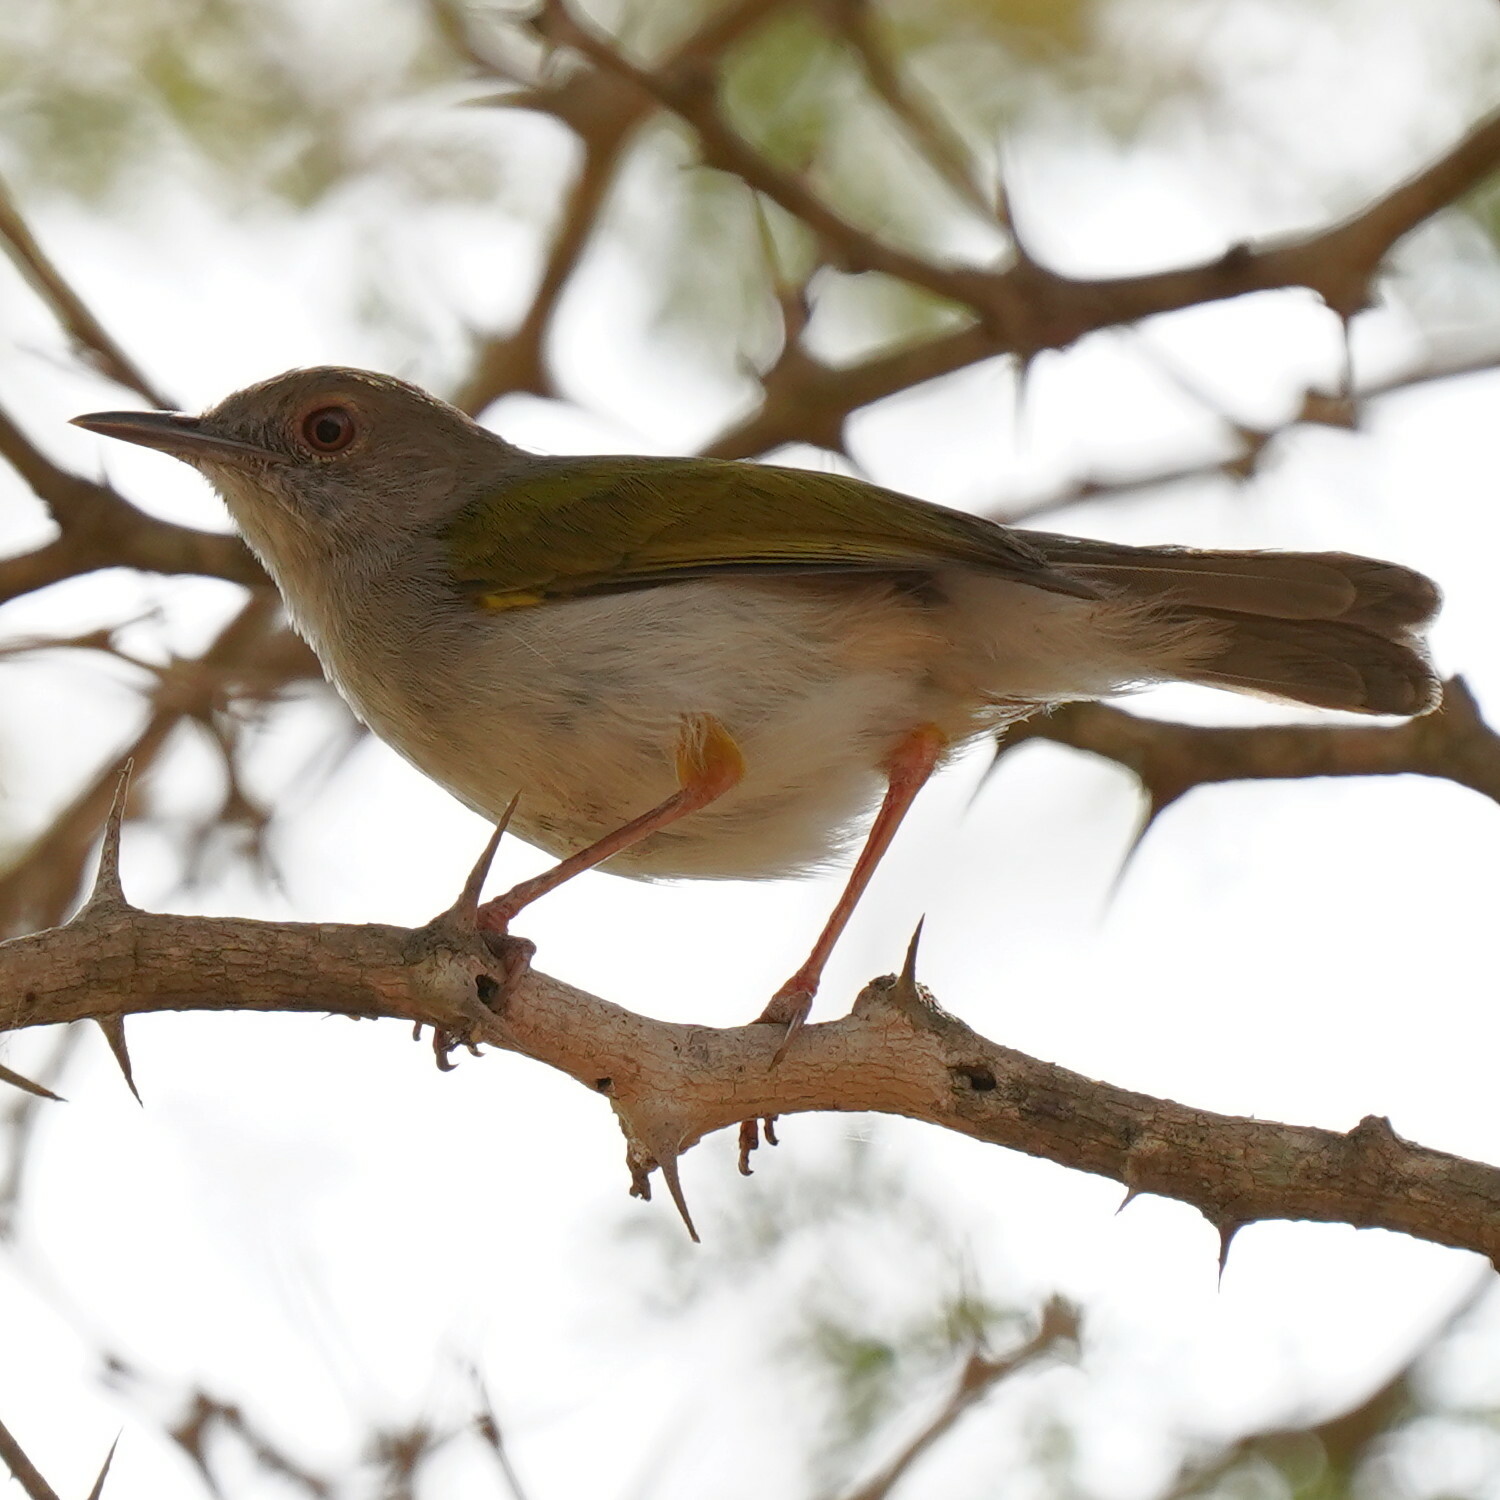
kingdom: Animalia
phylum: Chordata
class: Aves
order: Passeriformes
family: Cisticolidae
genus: Camaroptera
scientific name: Camaroptera brachyura
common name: Green-backed camaroptera
